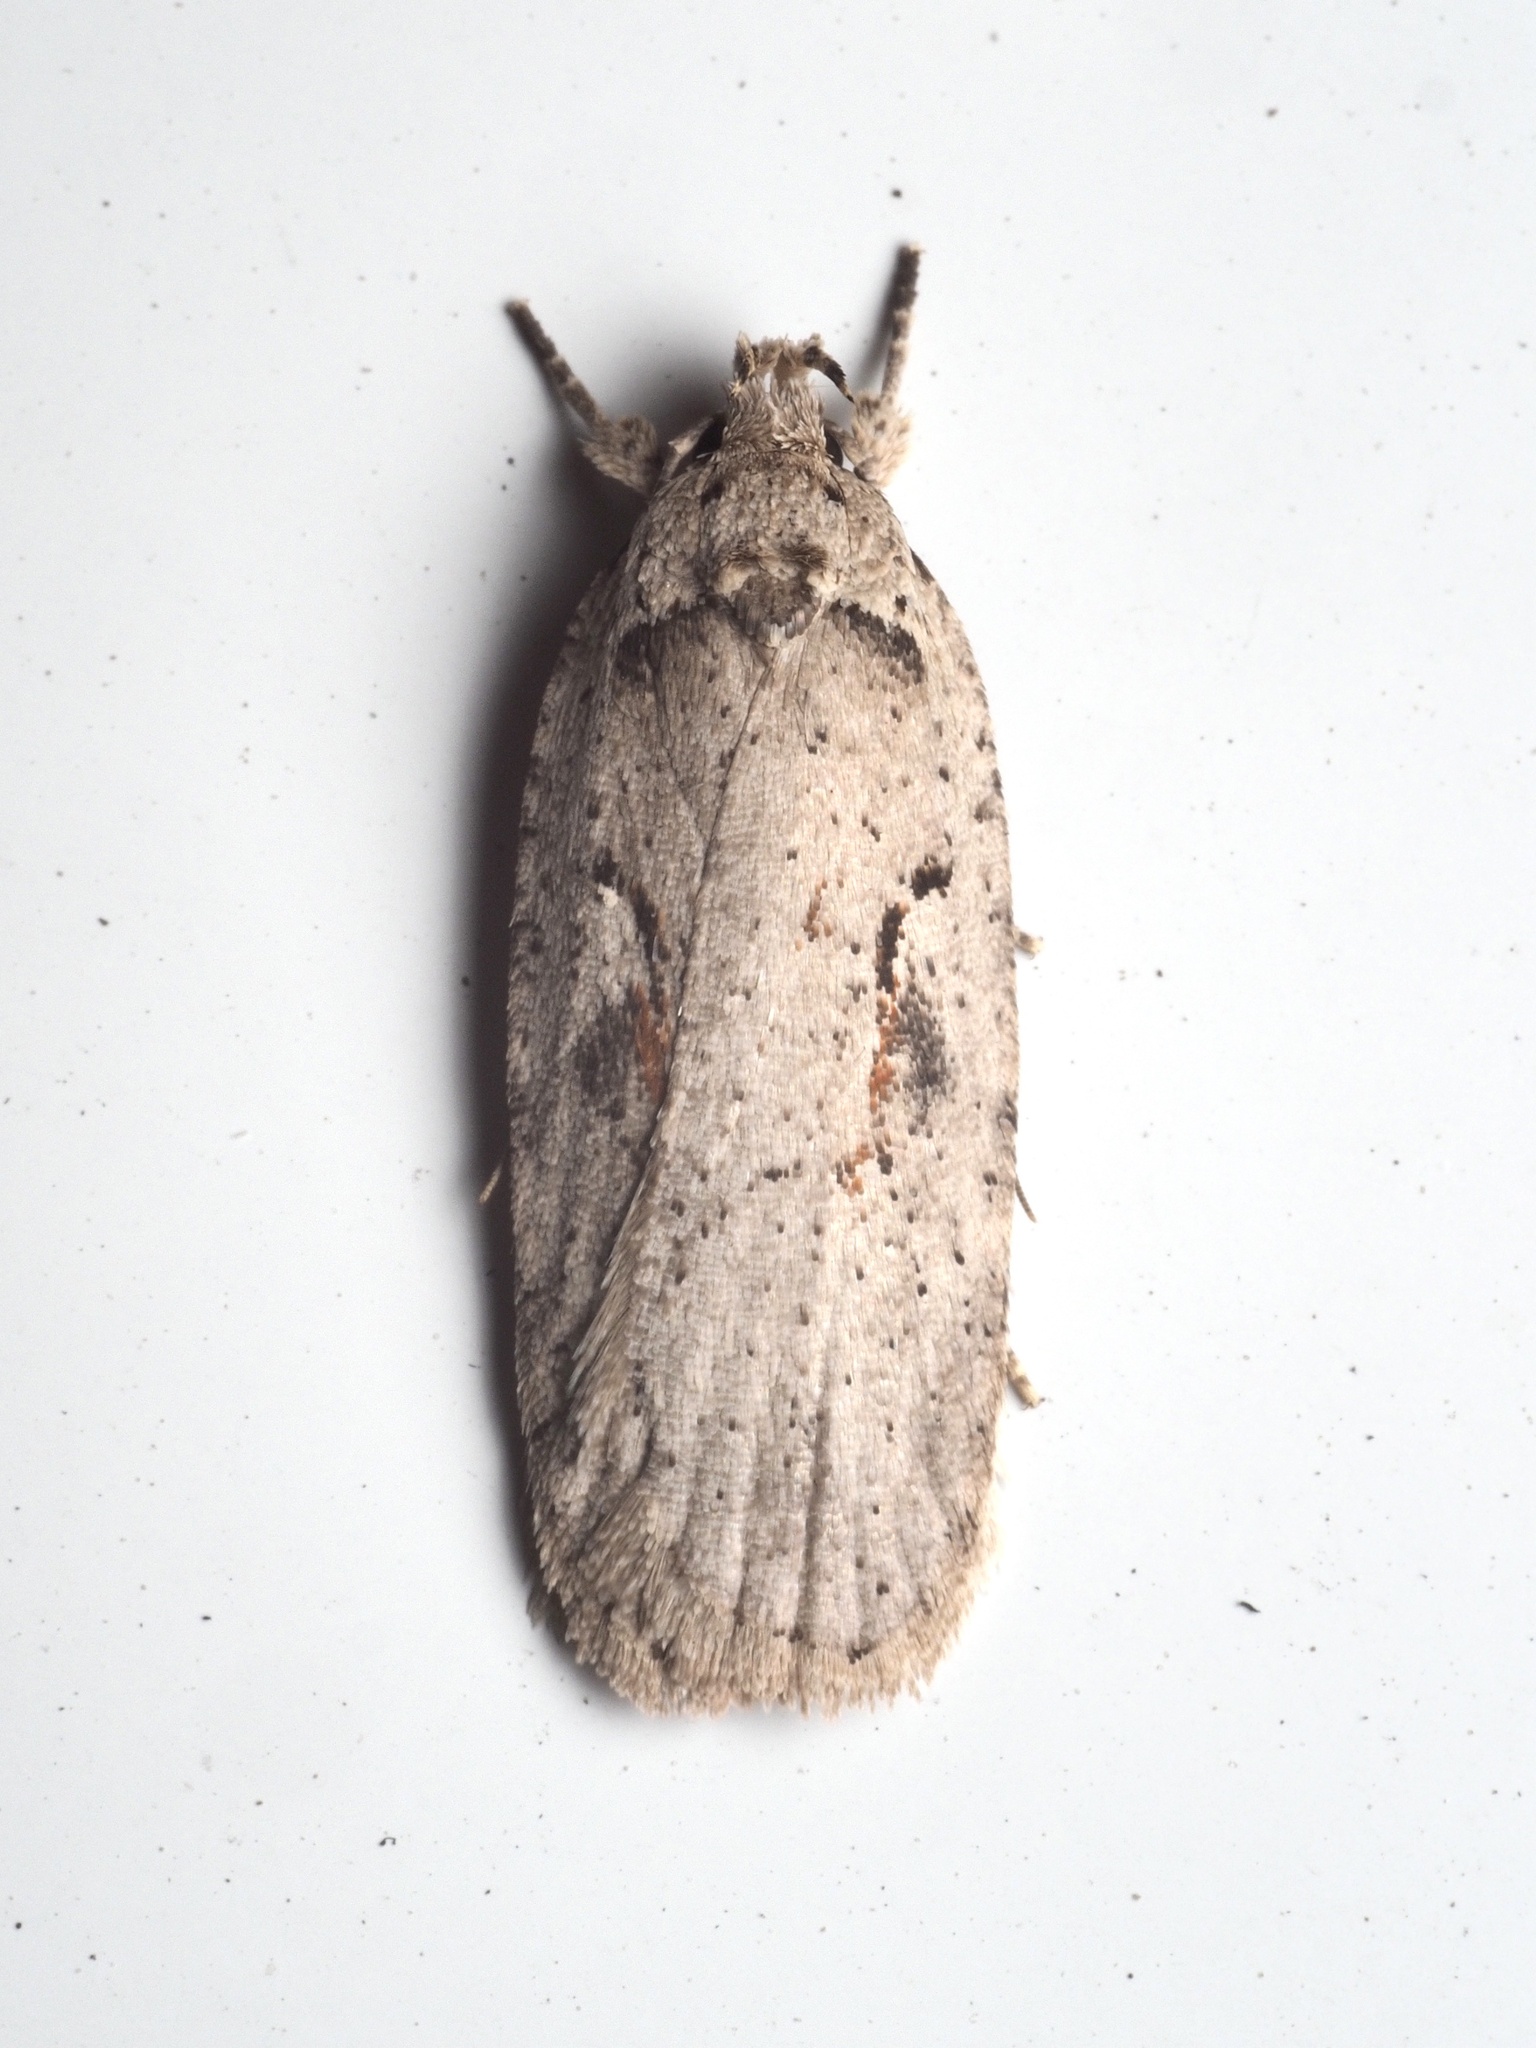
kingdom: Animalia
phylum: Arthropoda
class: Insecta
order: Lepidoptera
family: Depressariidae
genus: Agonopterix
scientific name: Agonopterix ocellana
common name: Red-letter flat-body
